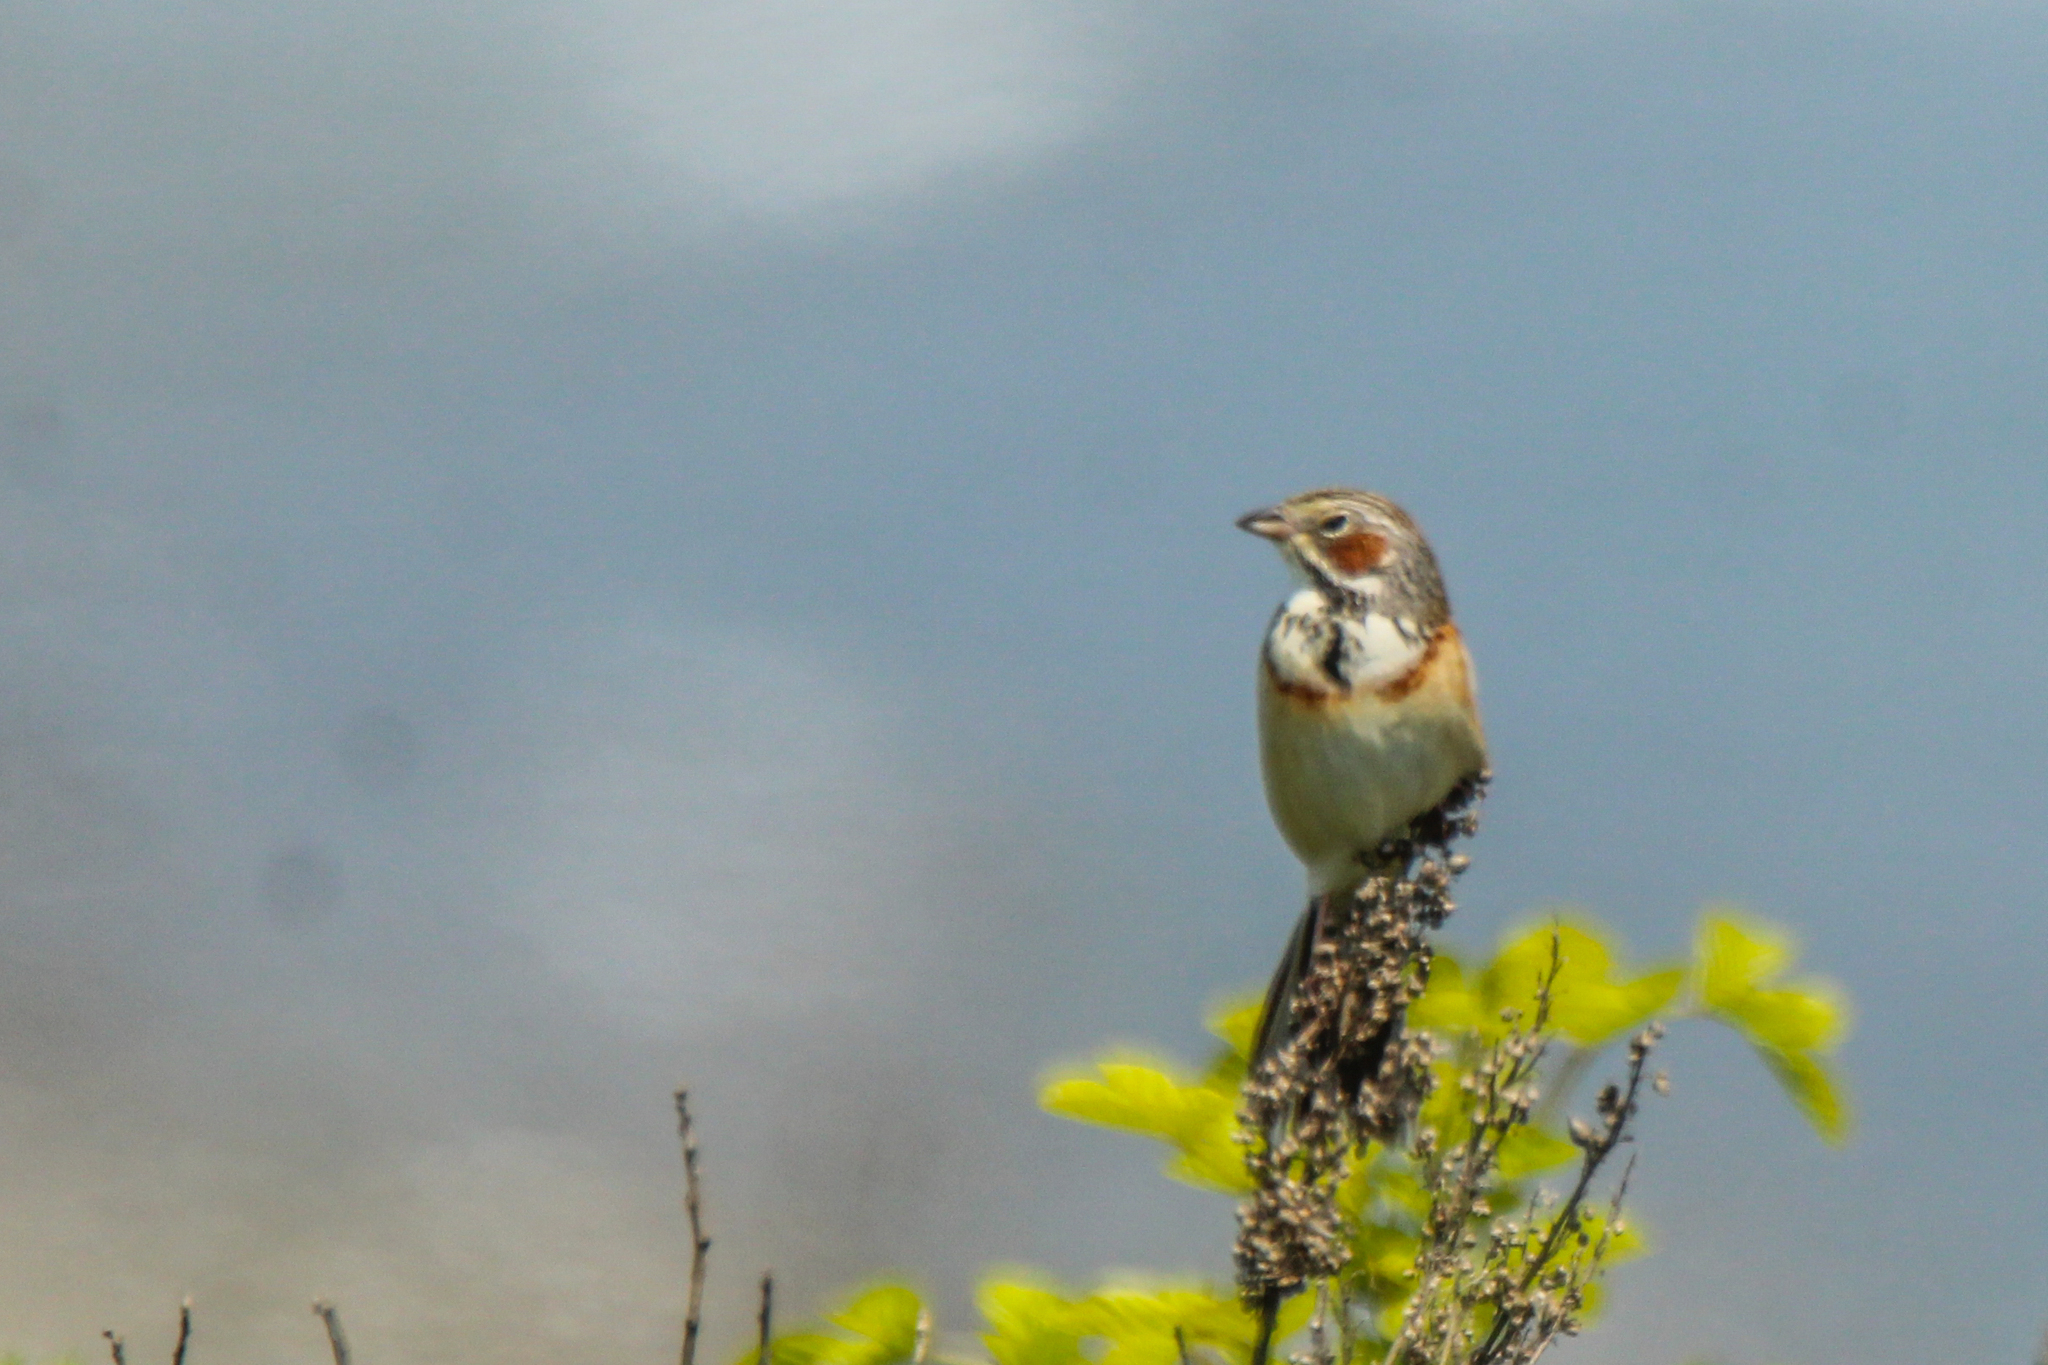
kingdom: Animalia
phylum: Chordata
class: Aves
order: Passeriformes
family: Emberizidae
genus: Emberiza
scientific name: Emberiza fucata
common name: Chestnut-eared bunting
